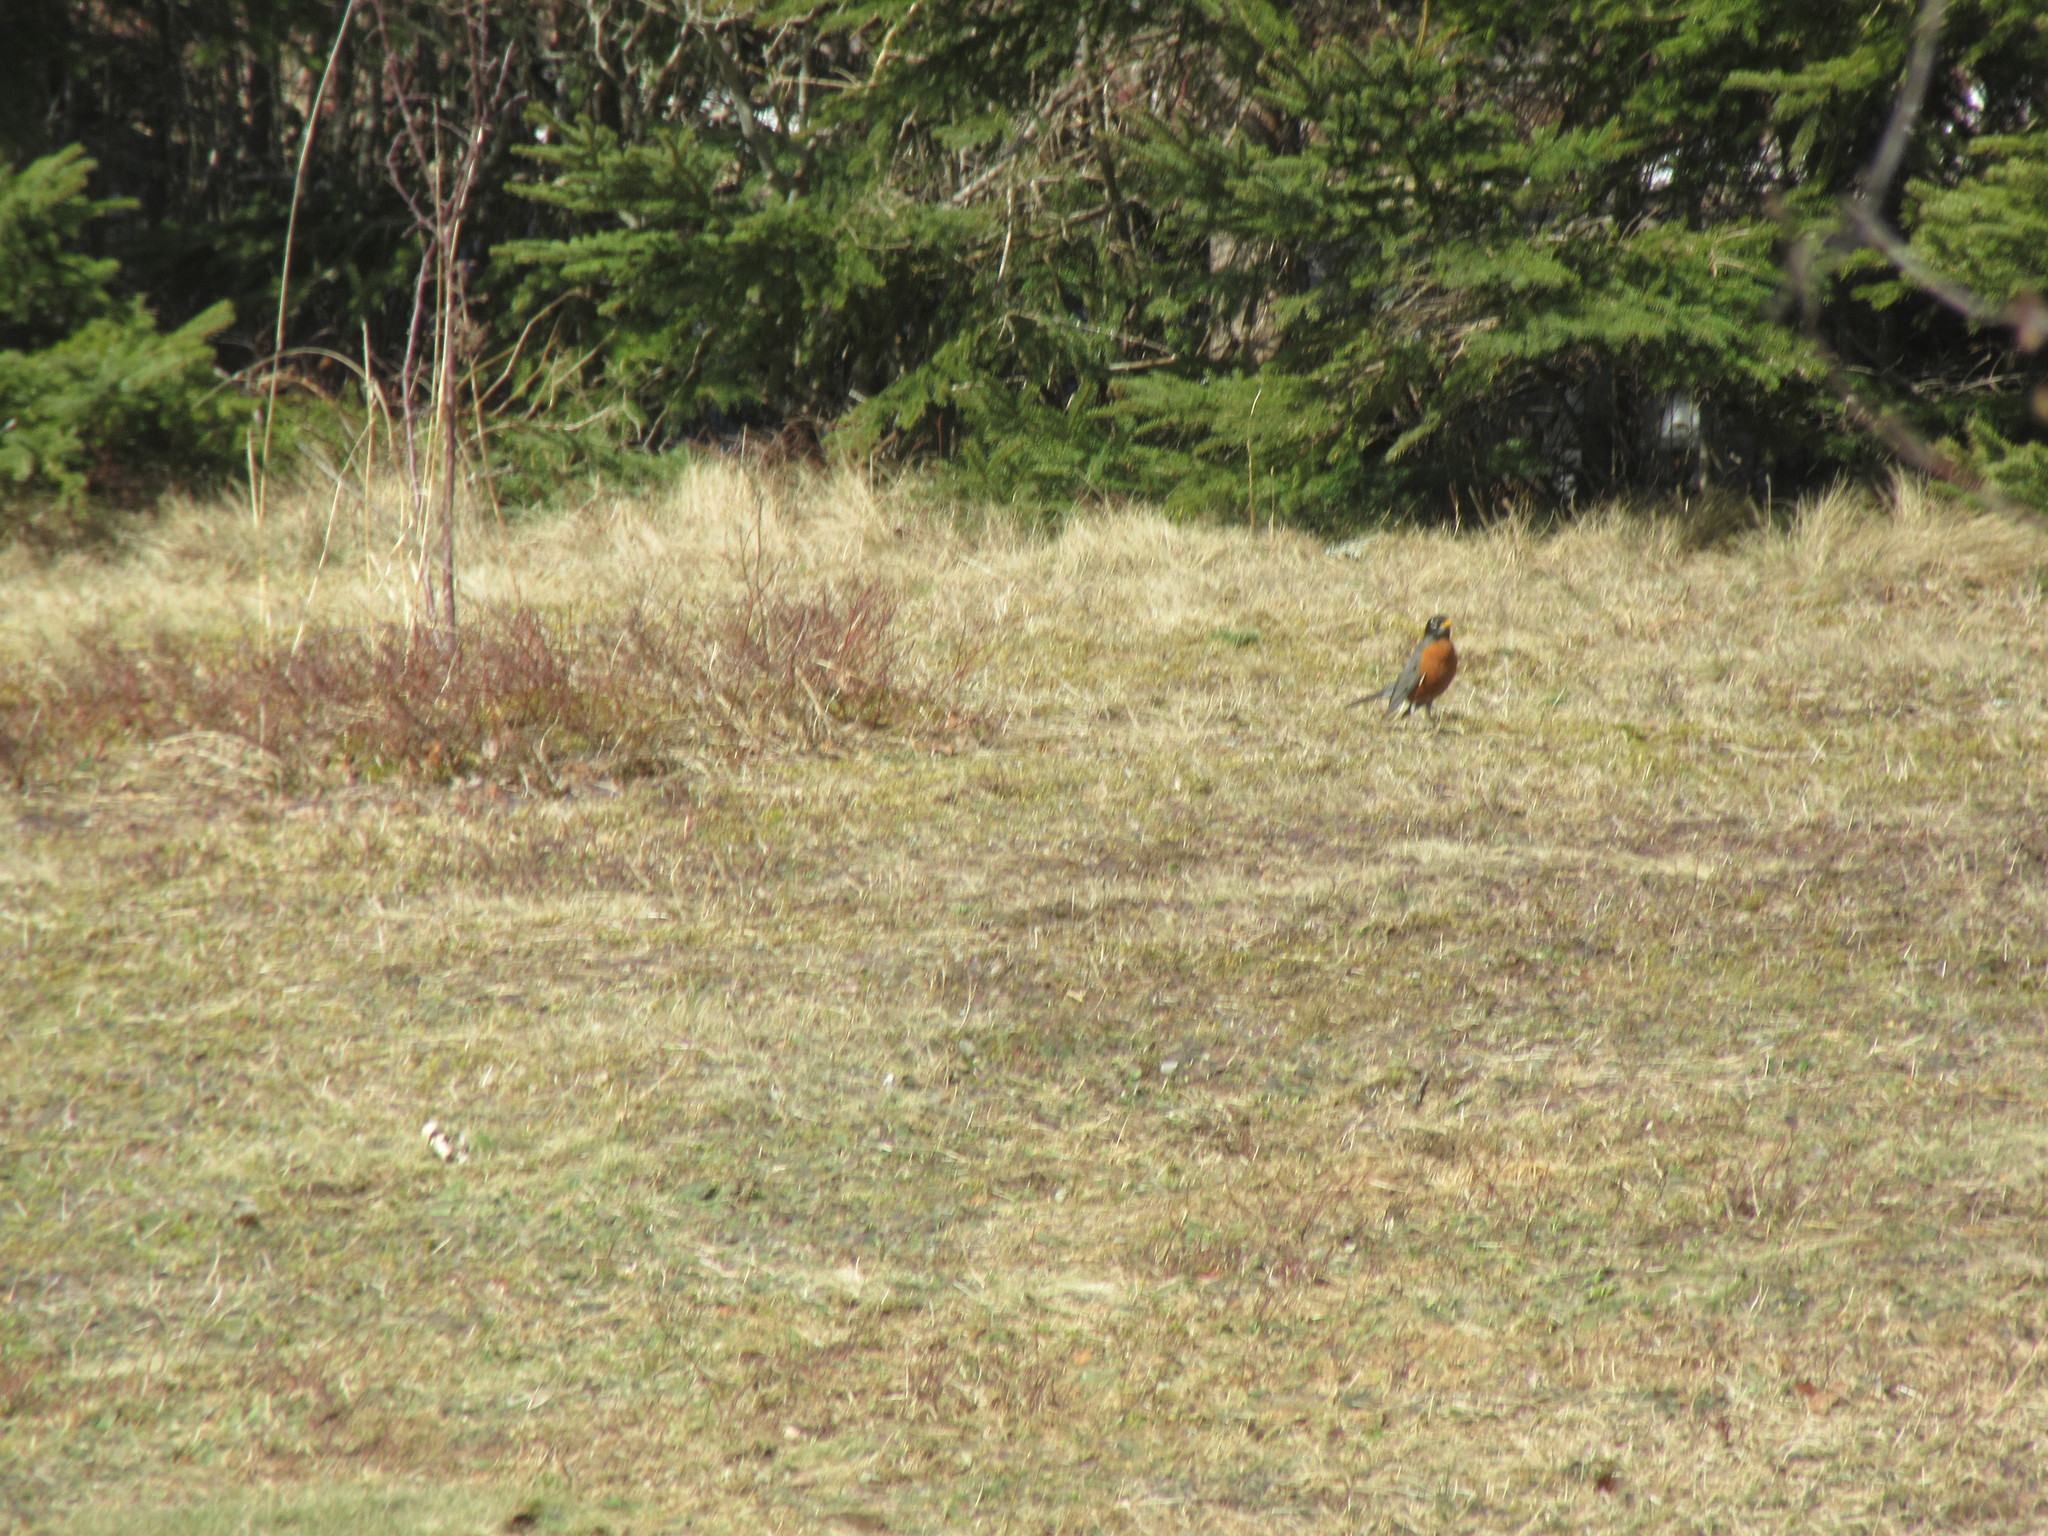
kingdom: Animalia
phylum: Chordata
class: Aves
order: Passeriformes
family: Turdidae
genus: Turdus
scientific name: Turdus migratorius
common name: American robin
